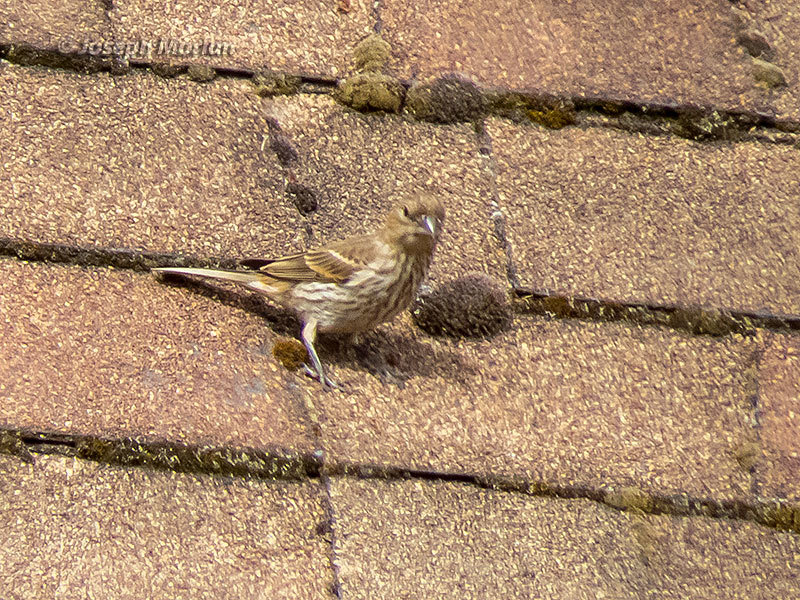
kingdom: Animalia
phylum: Chordata
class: Aves
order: Passeriformes
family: Fringillidae
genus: Haemorhous
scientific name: Haemorhous mexicanus
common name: House finch
